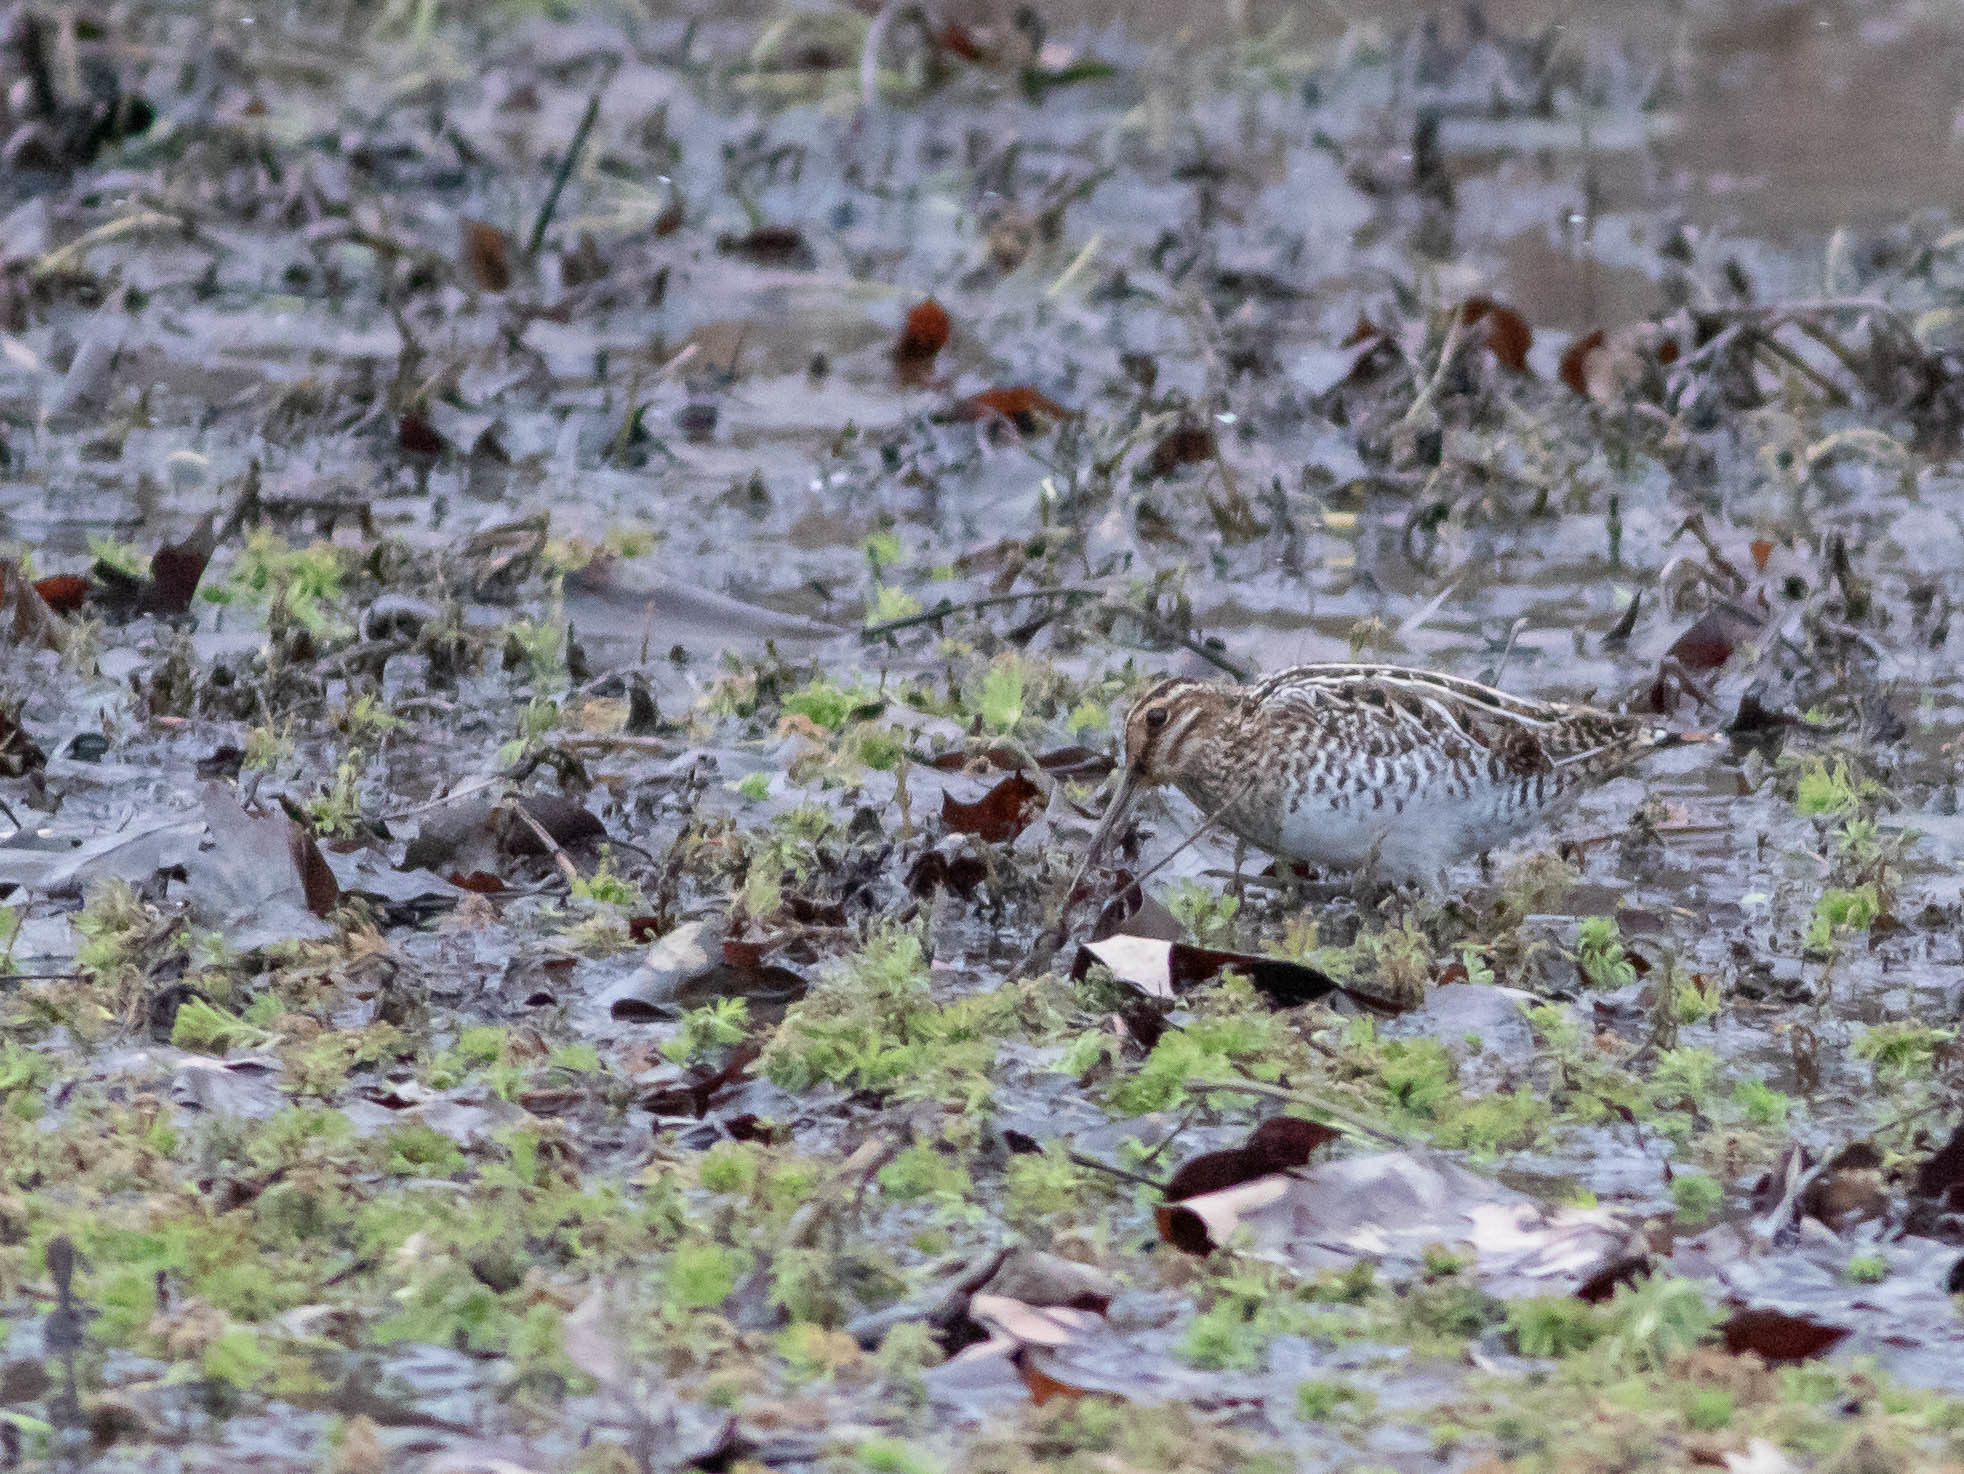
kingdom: Animalia
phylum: Chordata
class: Aves
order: Charadriiformes
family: Scolopacidae
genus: Gallinago
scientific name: Gallinago delicata
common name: Wilson's snipe
